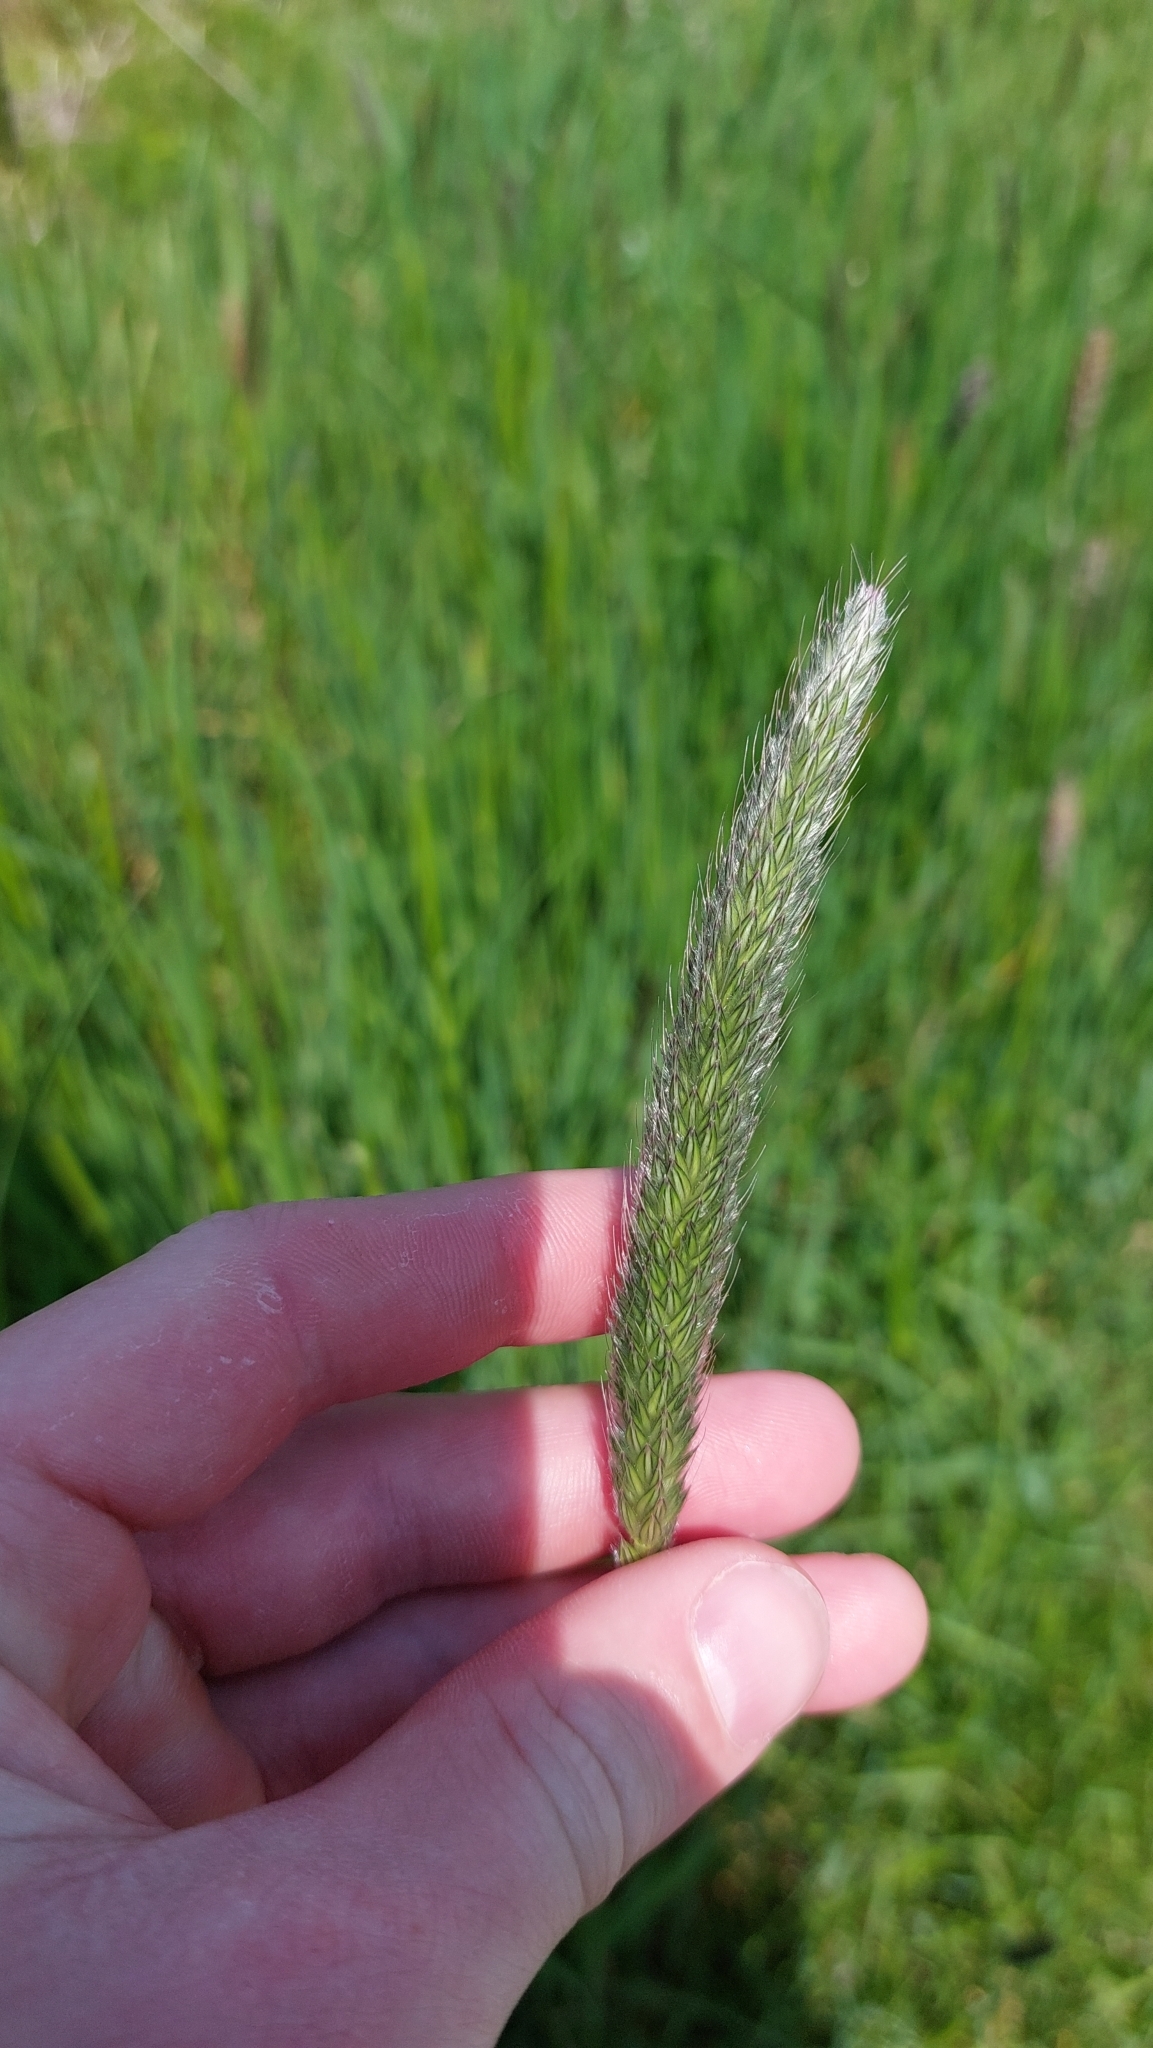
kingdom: Plantae
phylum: Tracheophyta
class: Liliopsida
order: Poales
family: Poaceae
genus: Alopecurus
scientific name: Alopecurus pratensis
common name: Meadow foxtail
